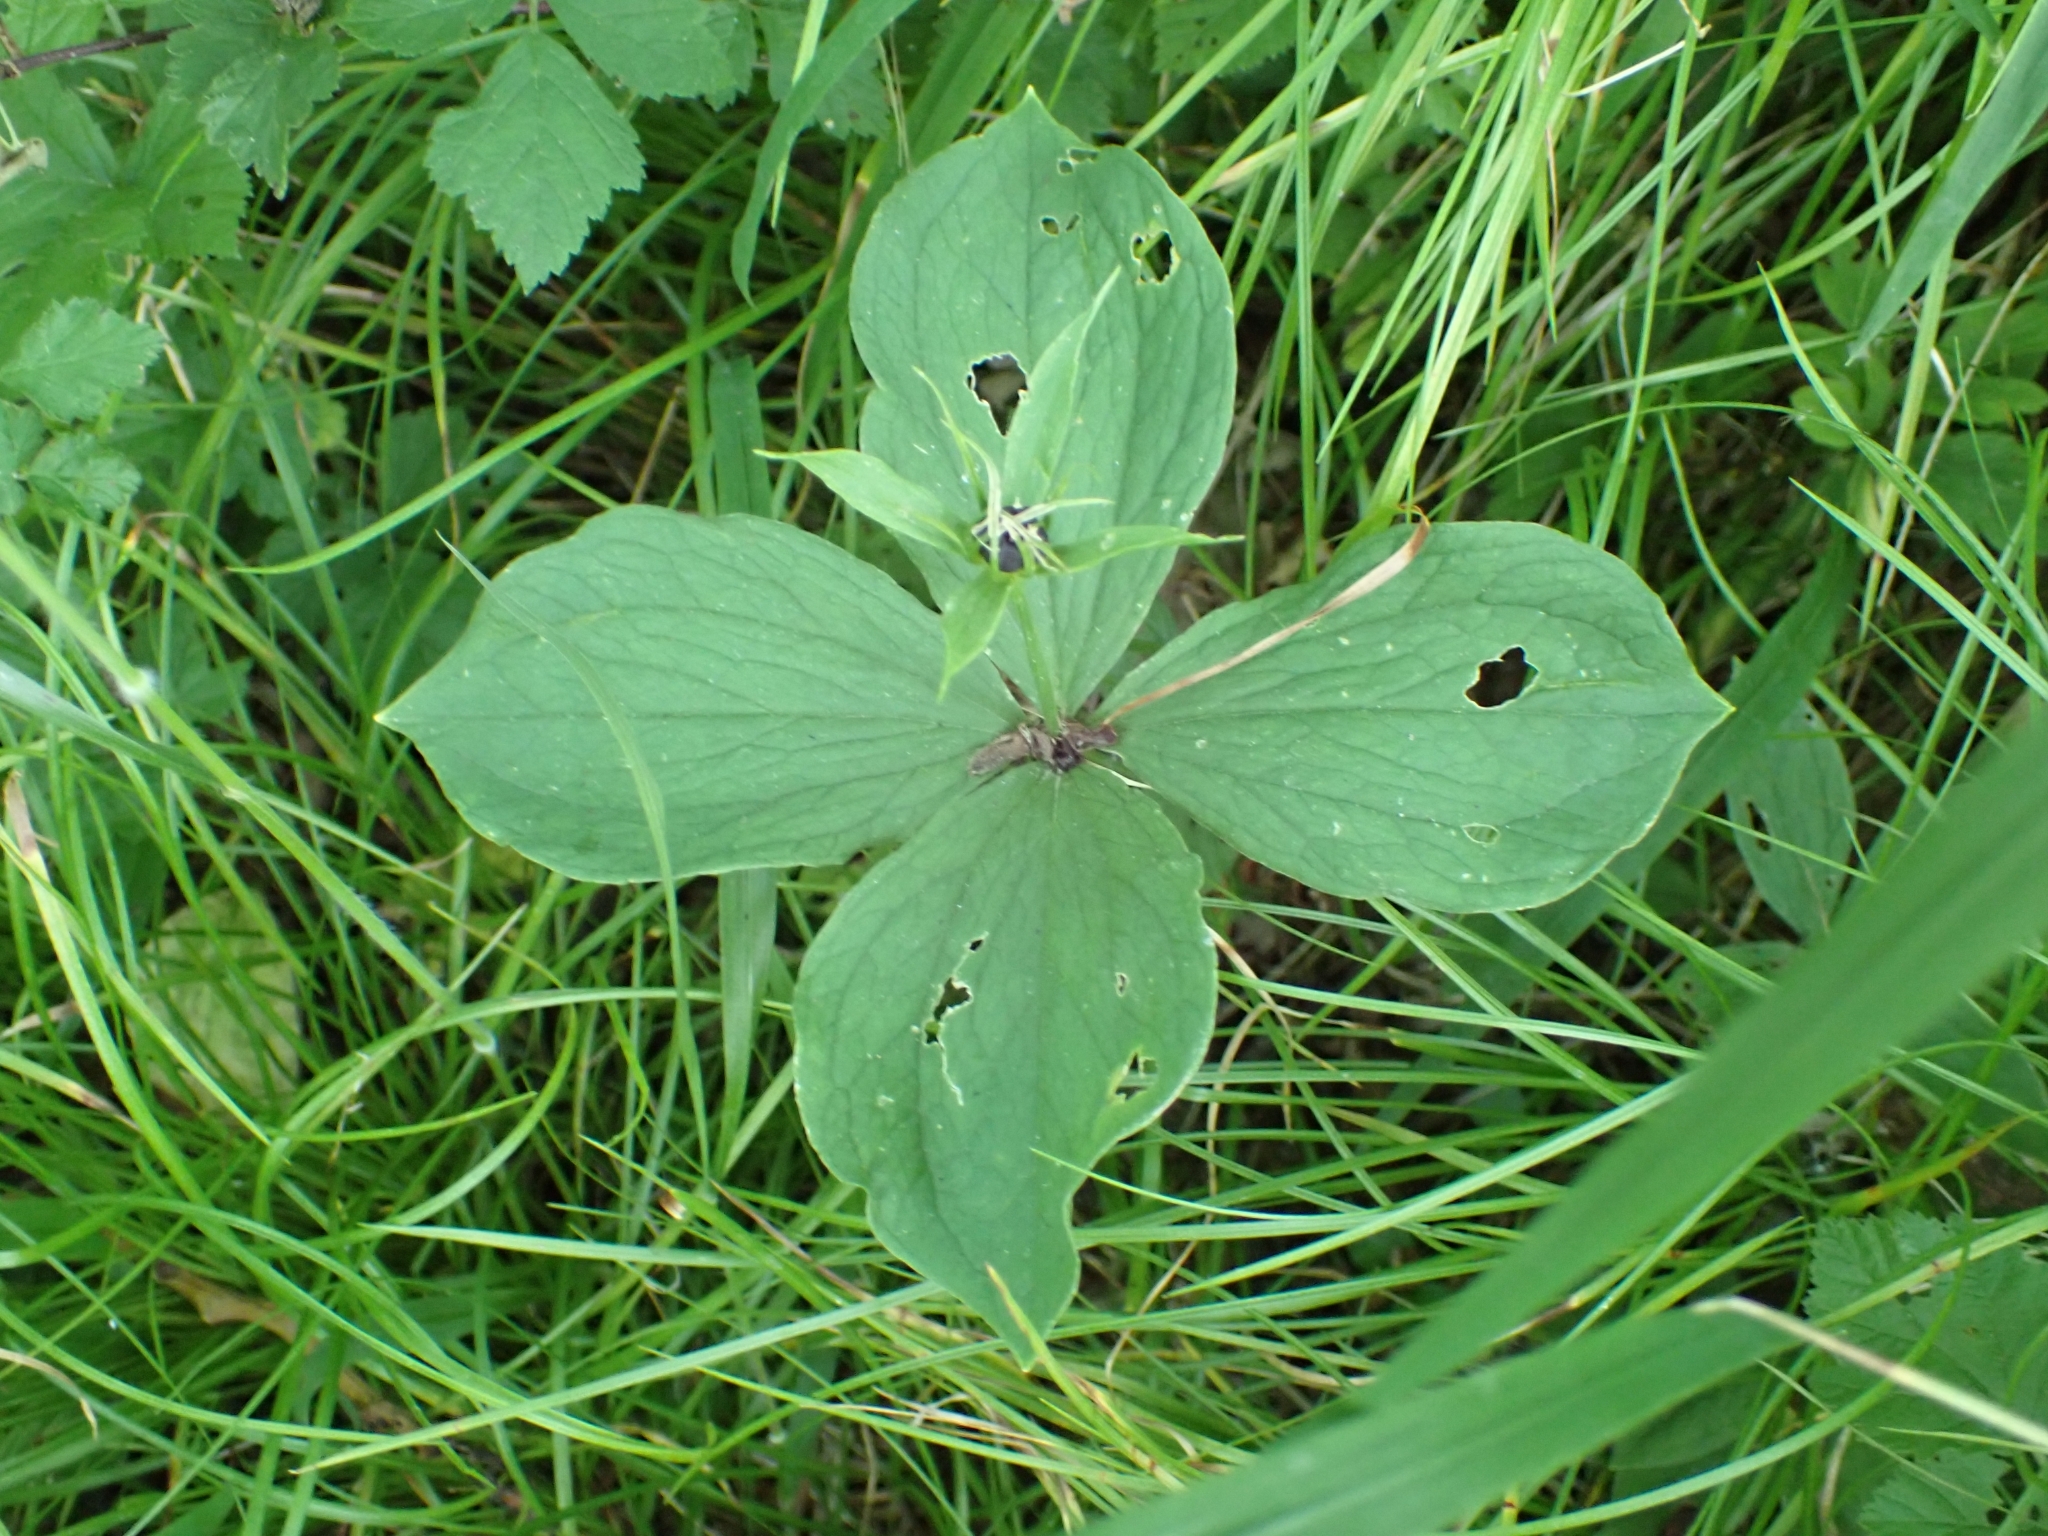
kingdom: Plantae
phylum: Tracheophyta
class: Liliopsida
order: Liliales
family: Melanthiaceae
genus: Paris
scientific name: Paris quadrifolia
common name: Herb-paris
